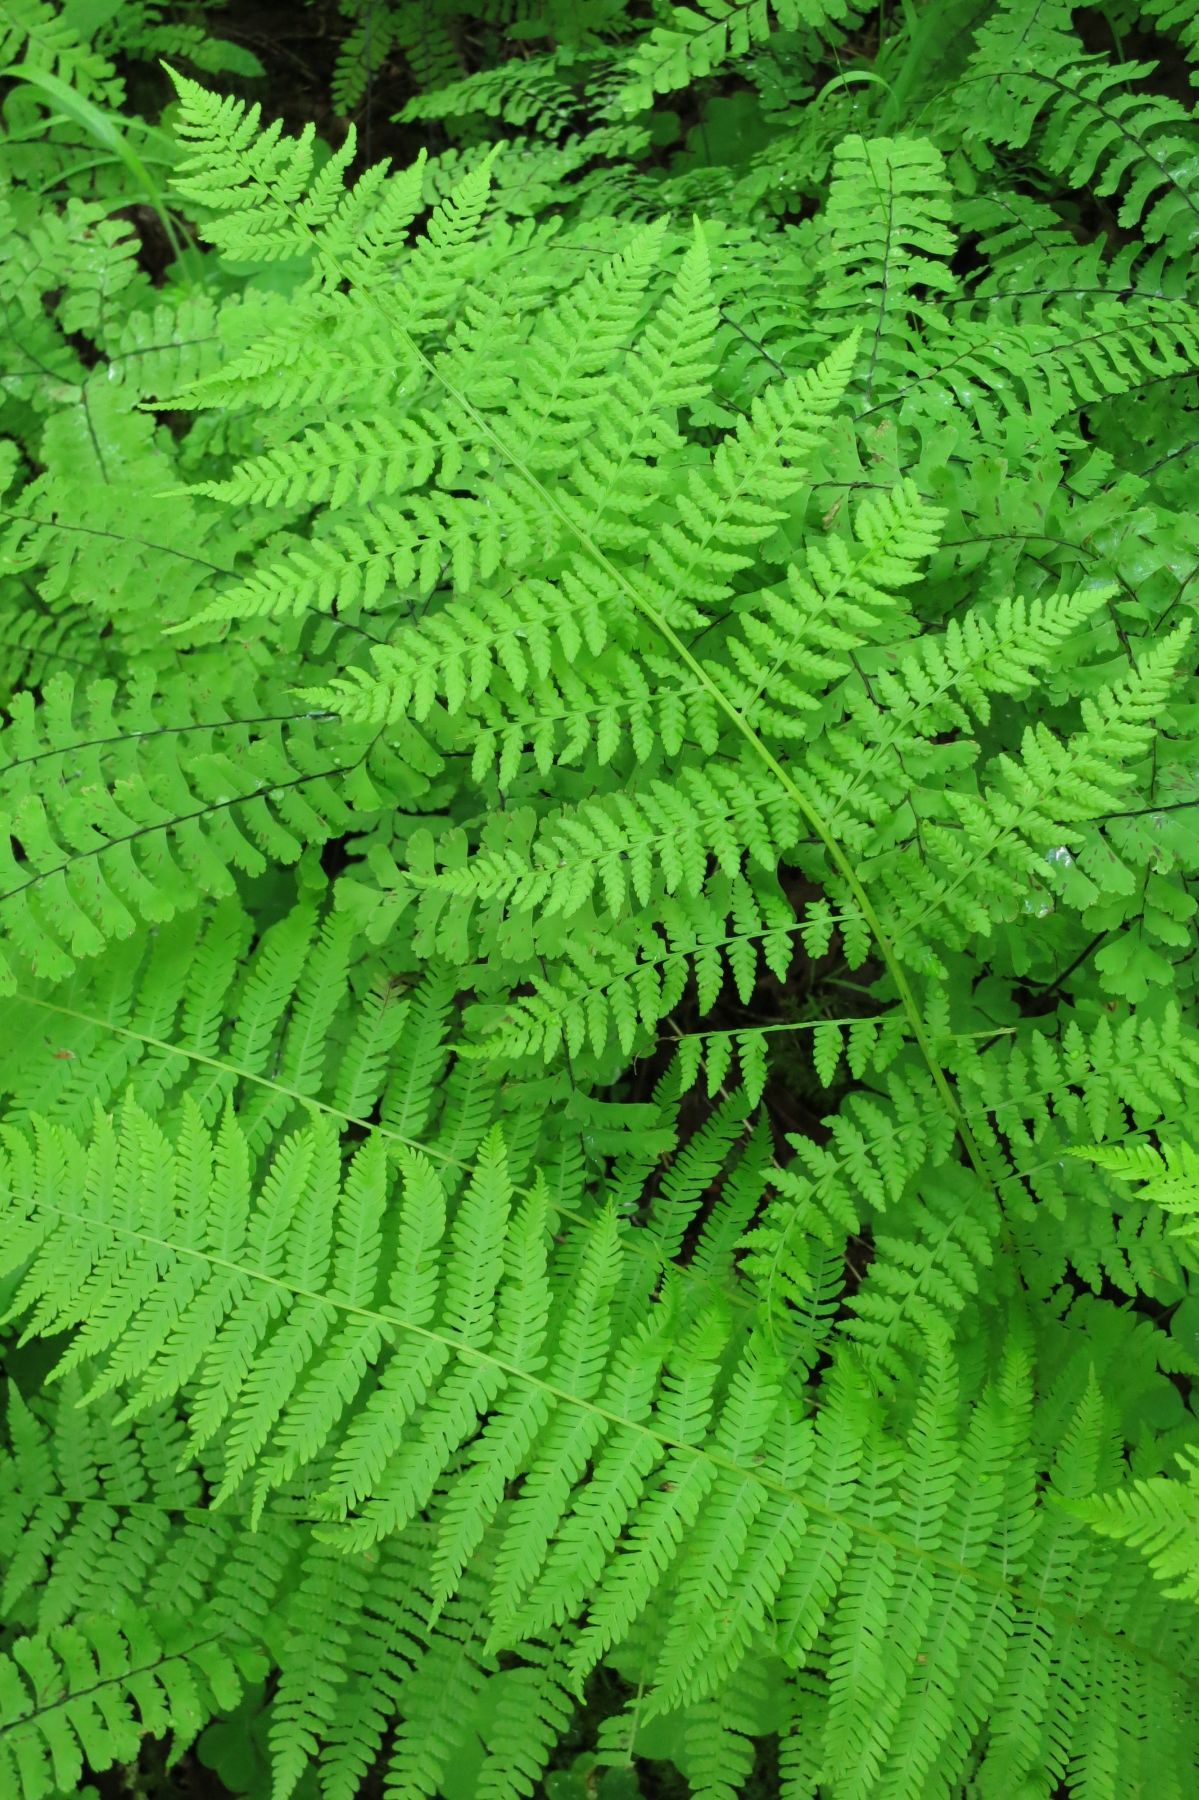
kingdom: Plantae
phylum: Tracheophyta
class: Polypodiopsida
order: Polypodiales
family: Thelypteridaceae
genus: Amauropelta
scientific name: Amauropelta nevadensis
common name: Nevada marsh fern
